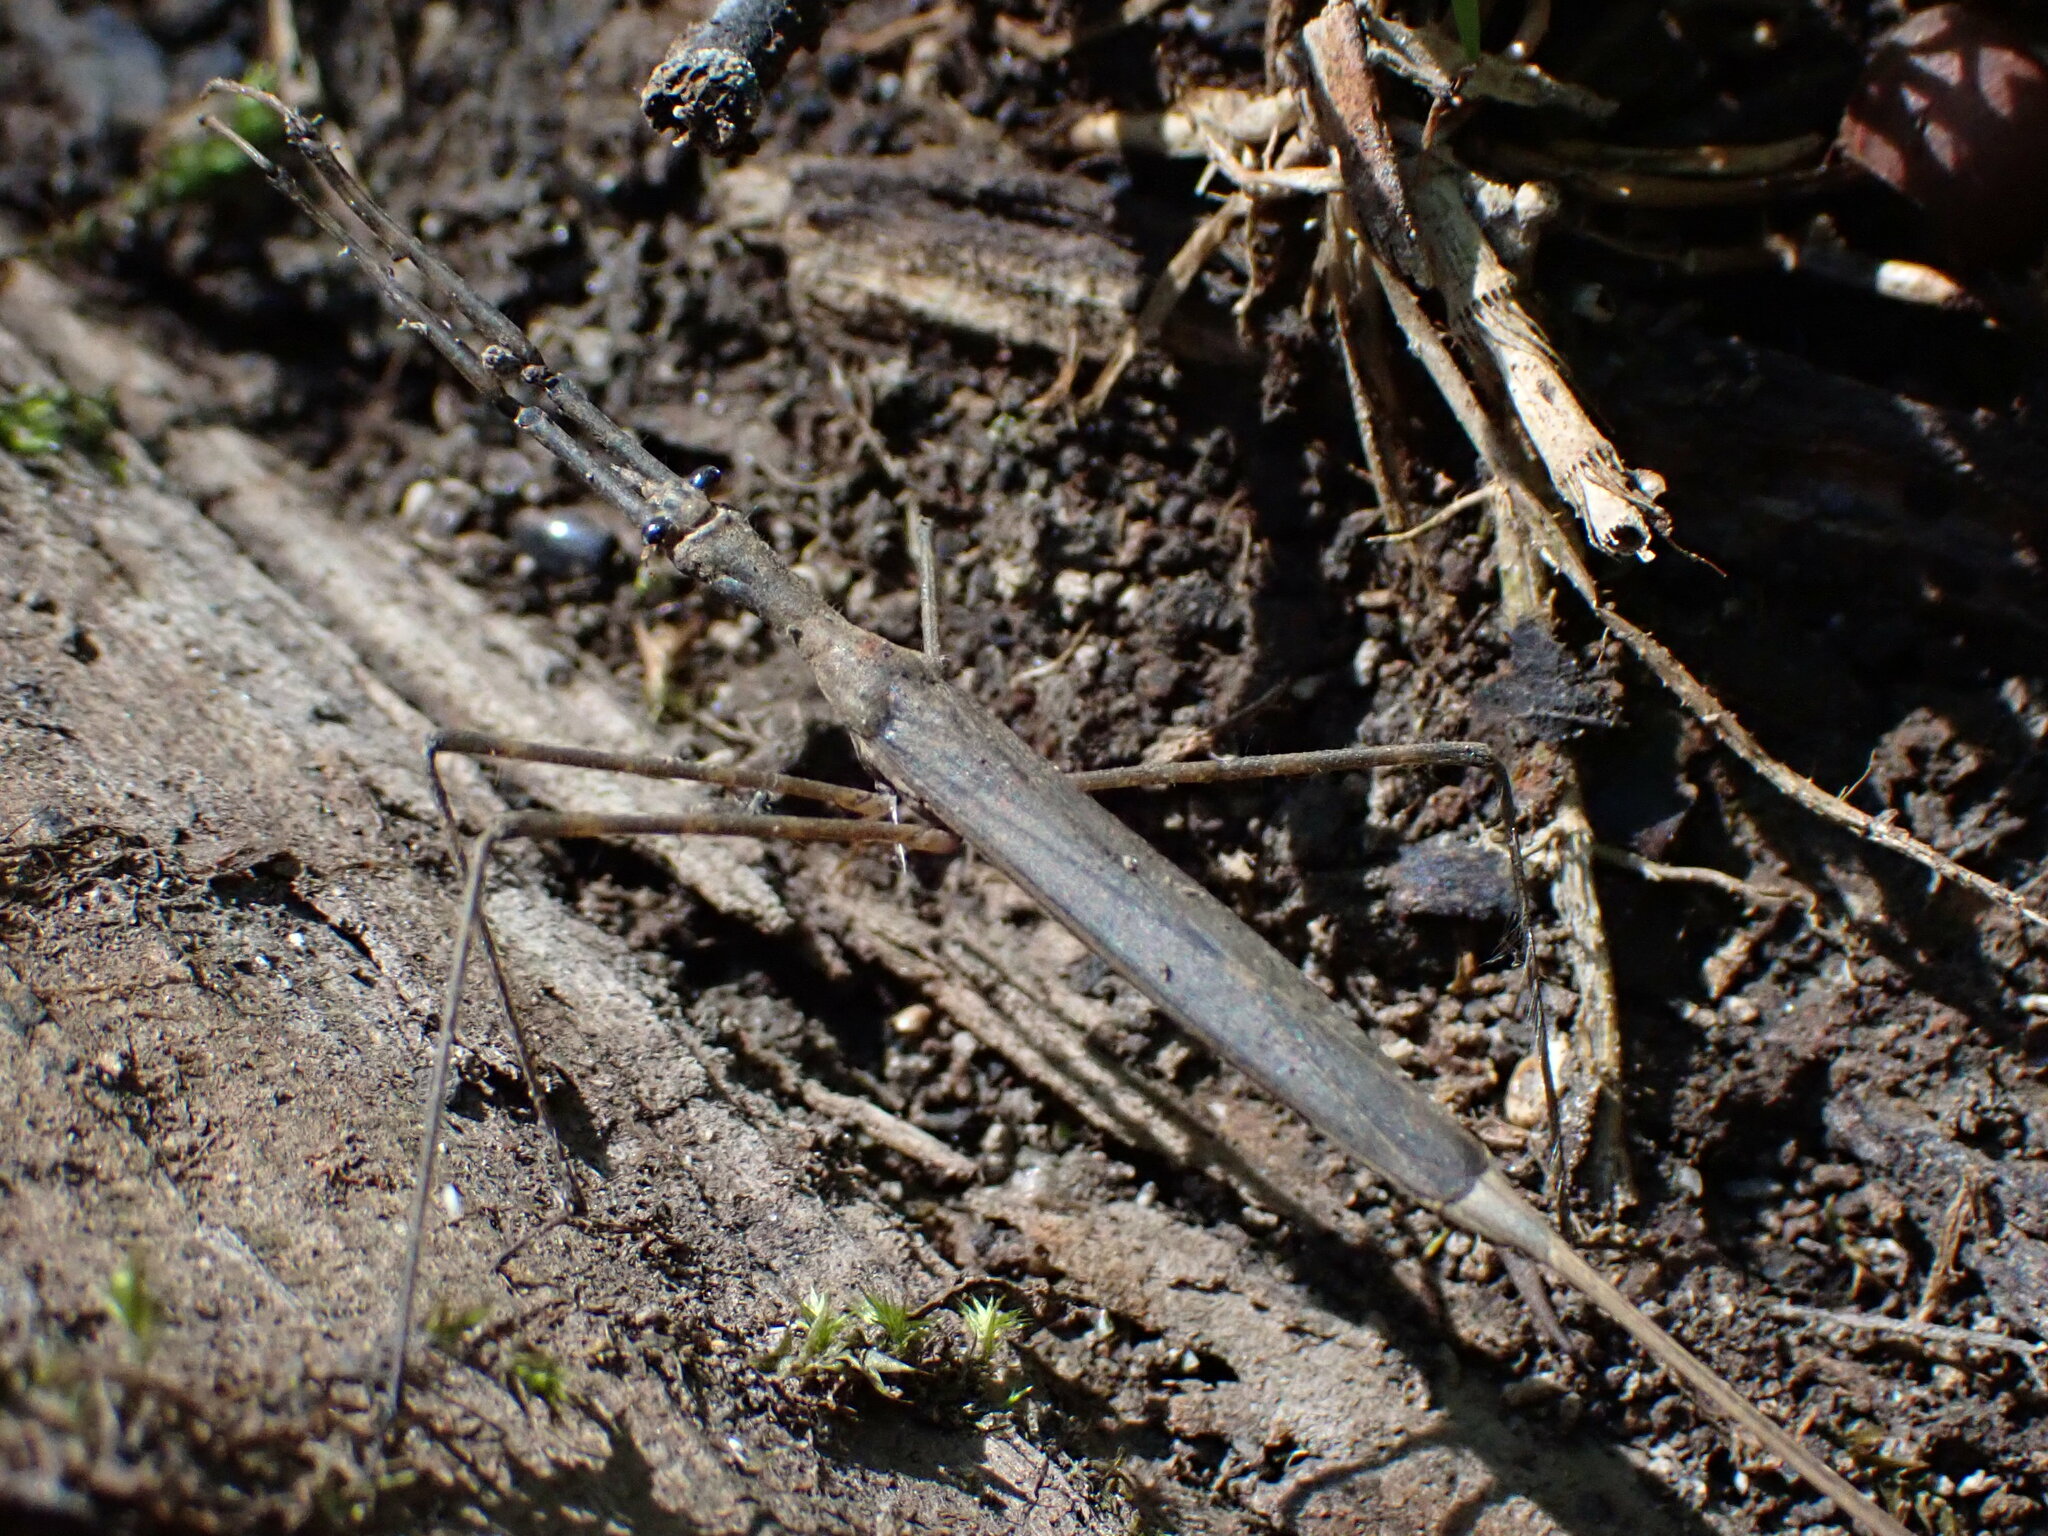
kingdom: Animalia
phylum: Arthropoda
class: Insecta
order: Hemiptera
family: Nepidae
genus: Ranatra
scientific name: Ranatra
